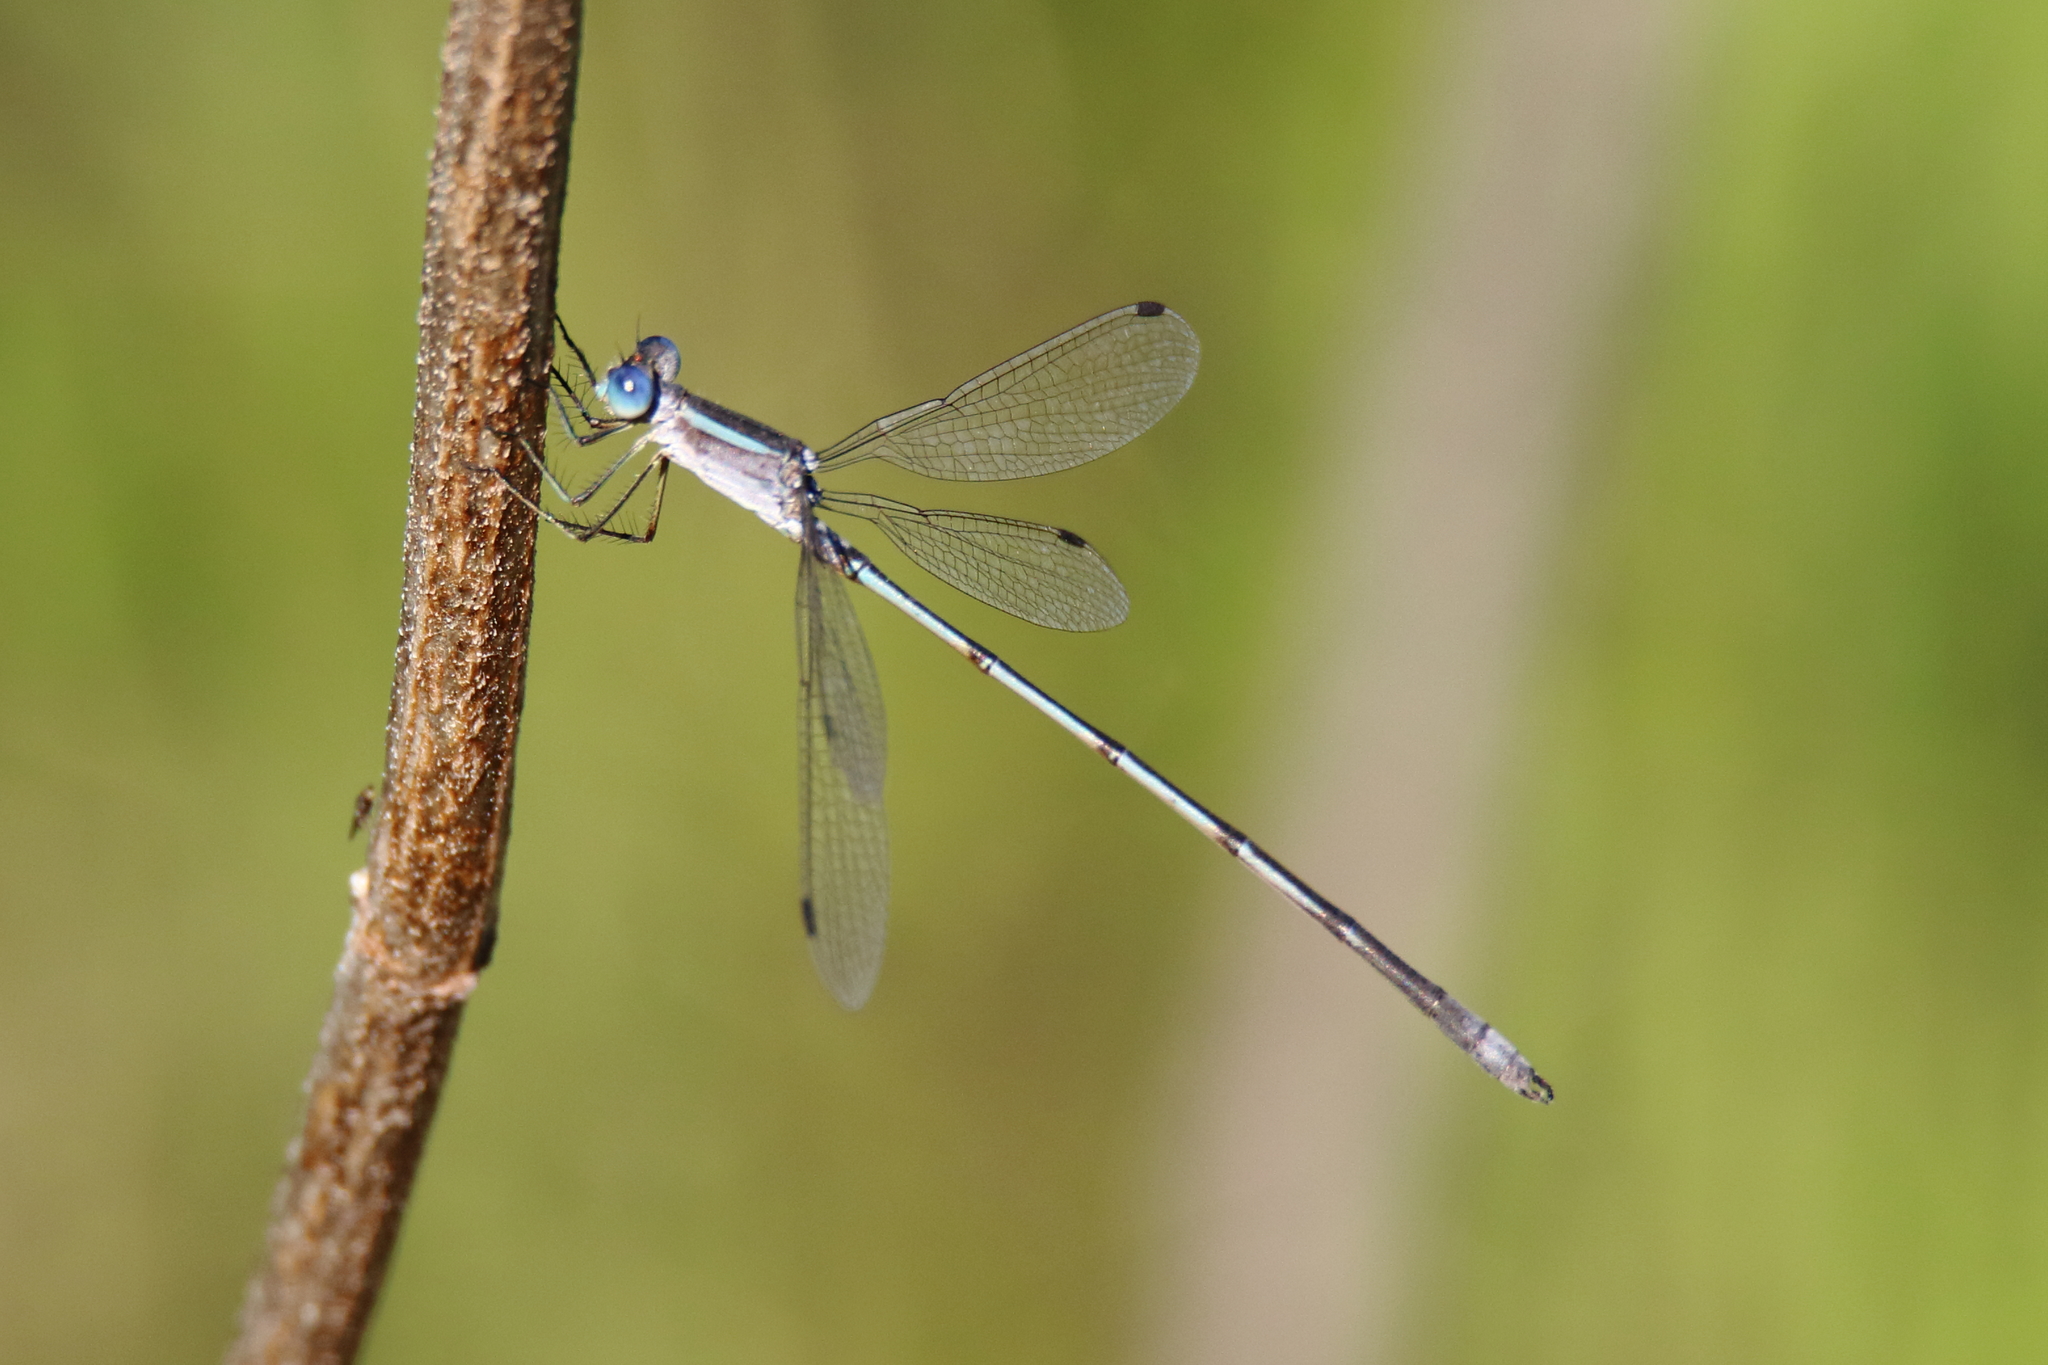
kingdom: Animalia
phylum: Arthropoda
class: Insecta
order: Odonata
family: Lestidae
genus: Lestes
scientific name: Lestes alacer
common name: Plateau spreadwing
